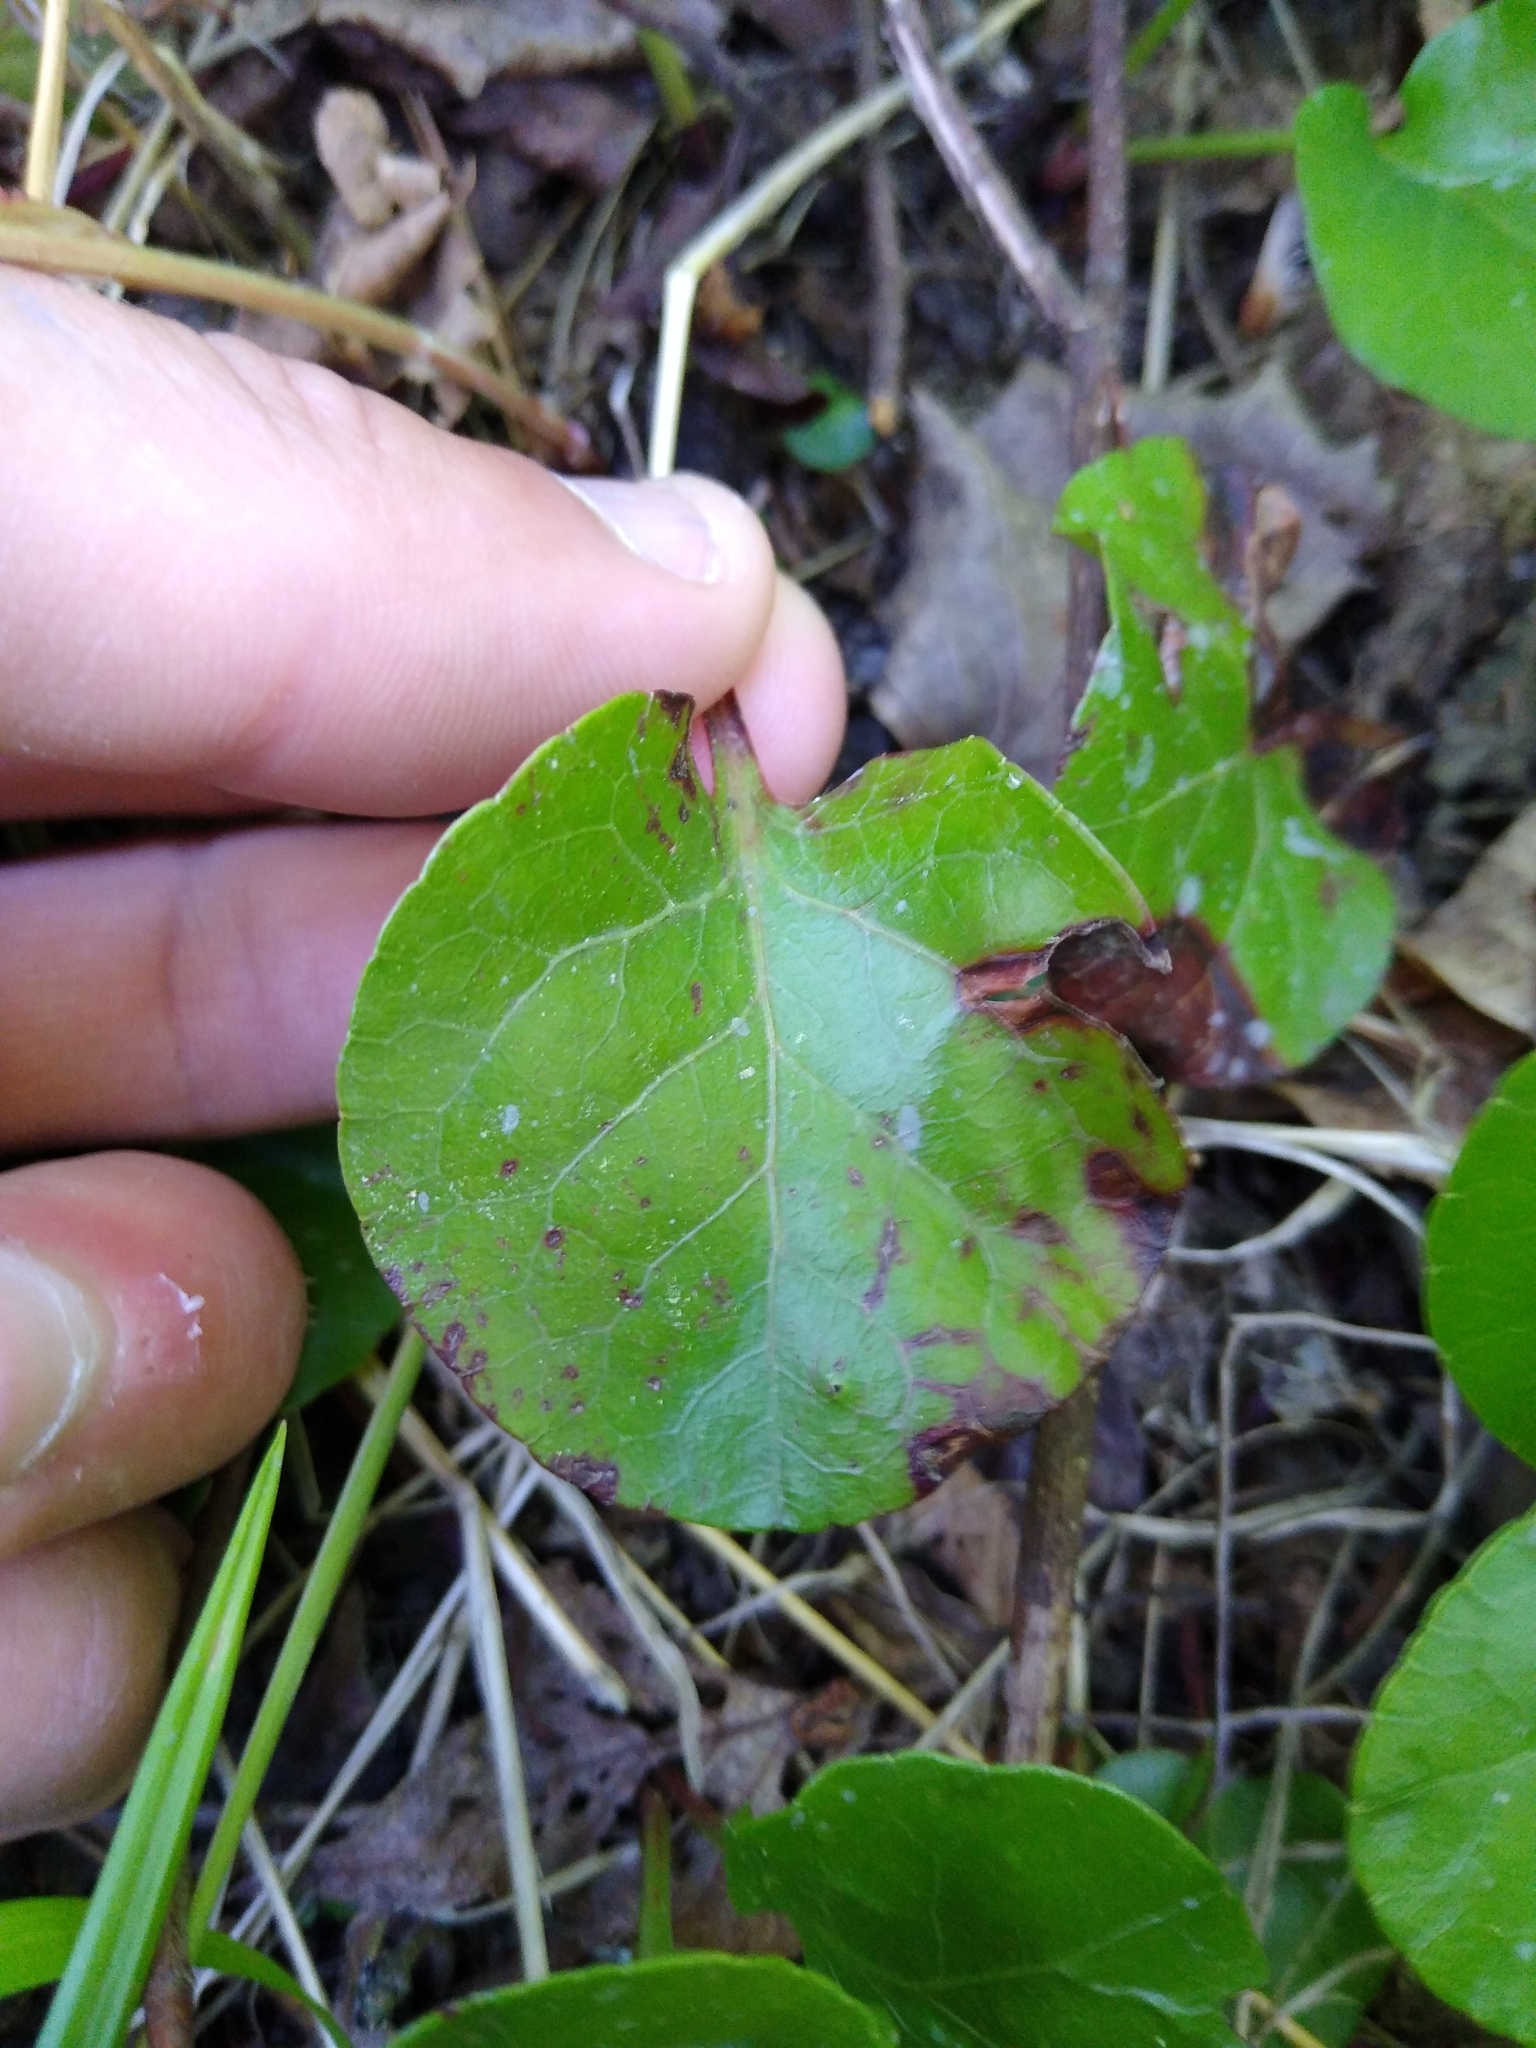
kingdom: Plantae
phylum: Tracheophyta
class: Magnoliopsida
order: Ericales
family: Ericaceae
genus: Pyrola
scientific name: Pyrola asarifolia
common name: Bog wintergreen
